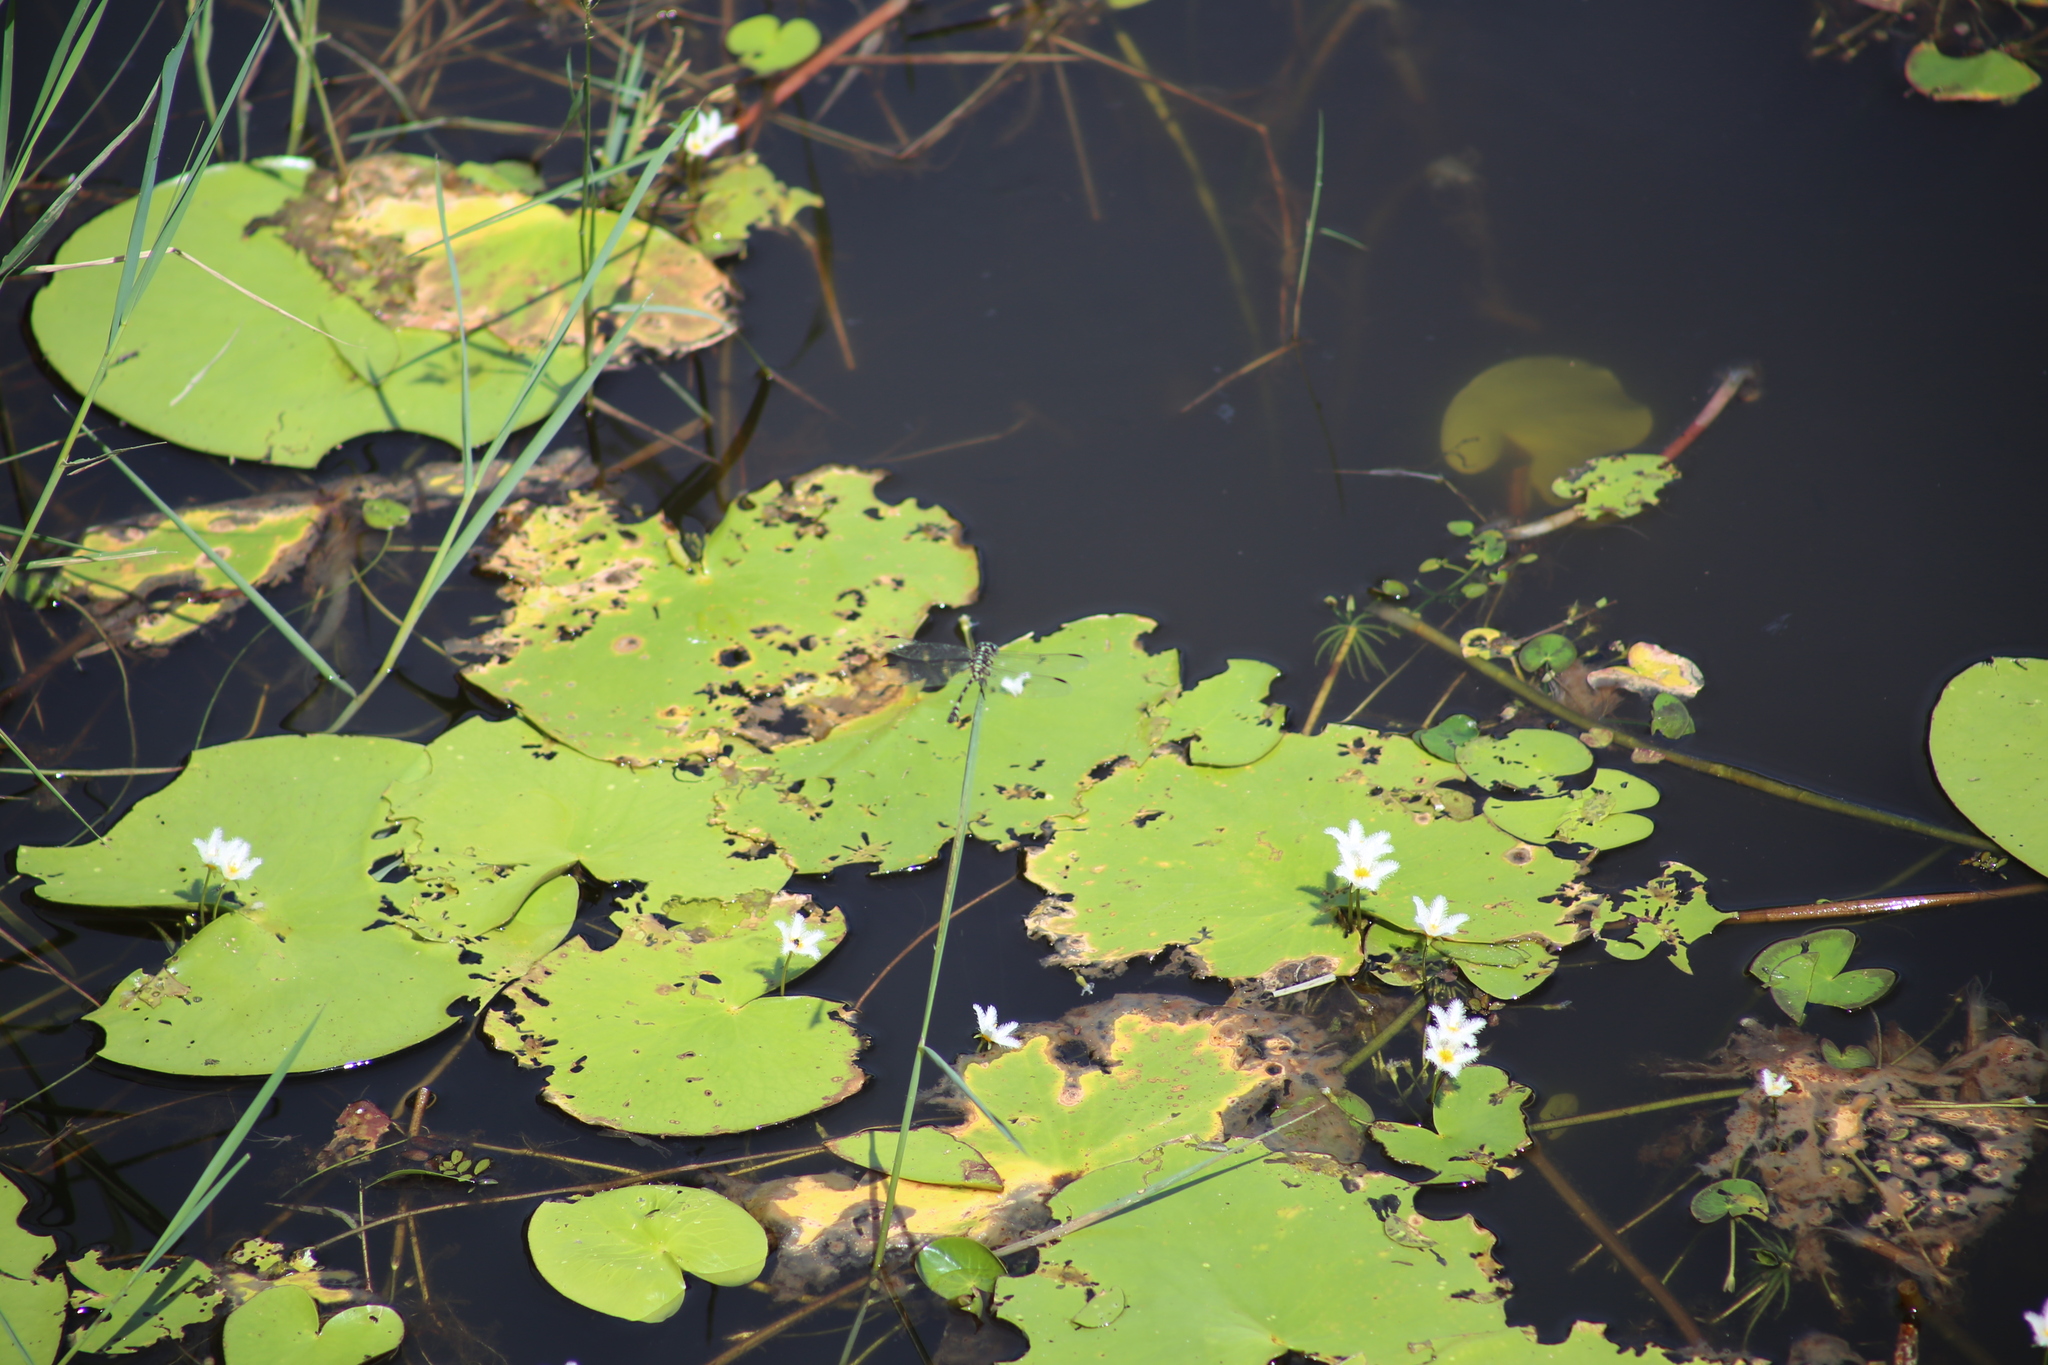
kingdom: Animalia
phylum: Arthropoda
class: Insecta
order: Odonata
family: Gomphidae
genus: Ictinogomphus
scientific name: Ictinogomphus australis
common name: Australian tiger
